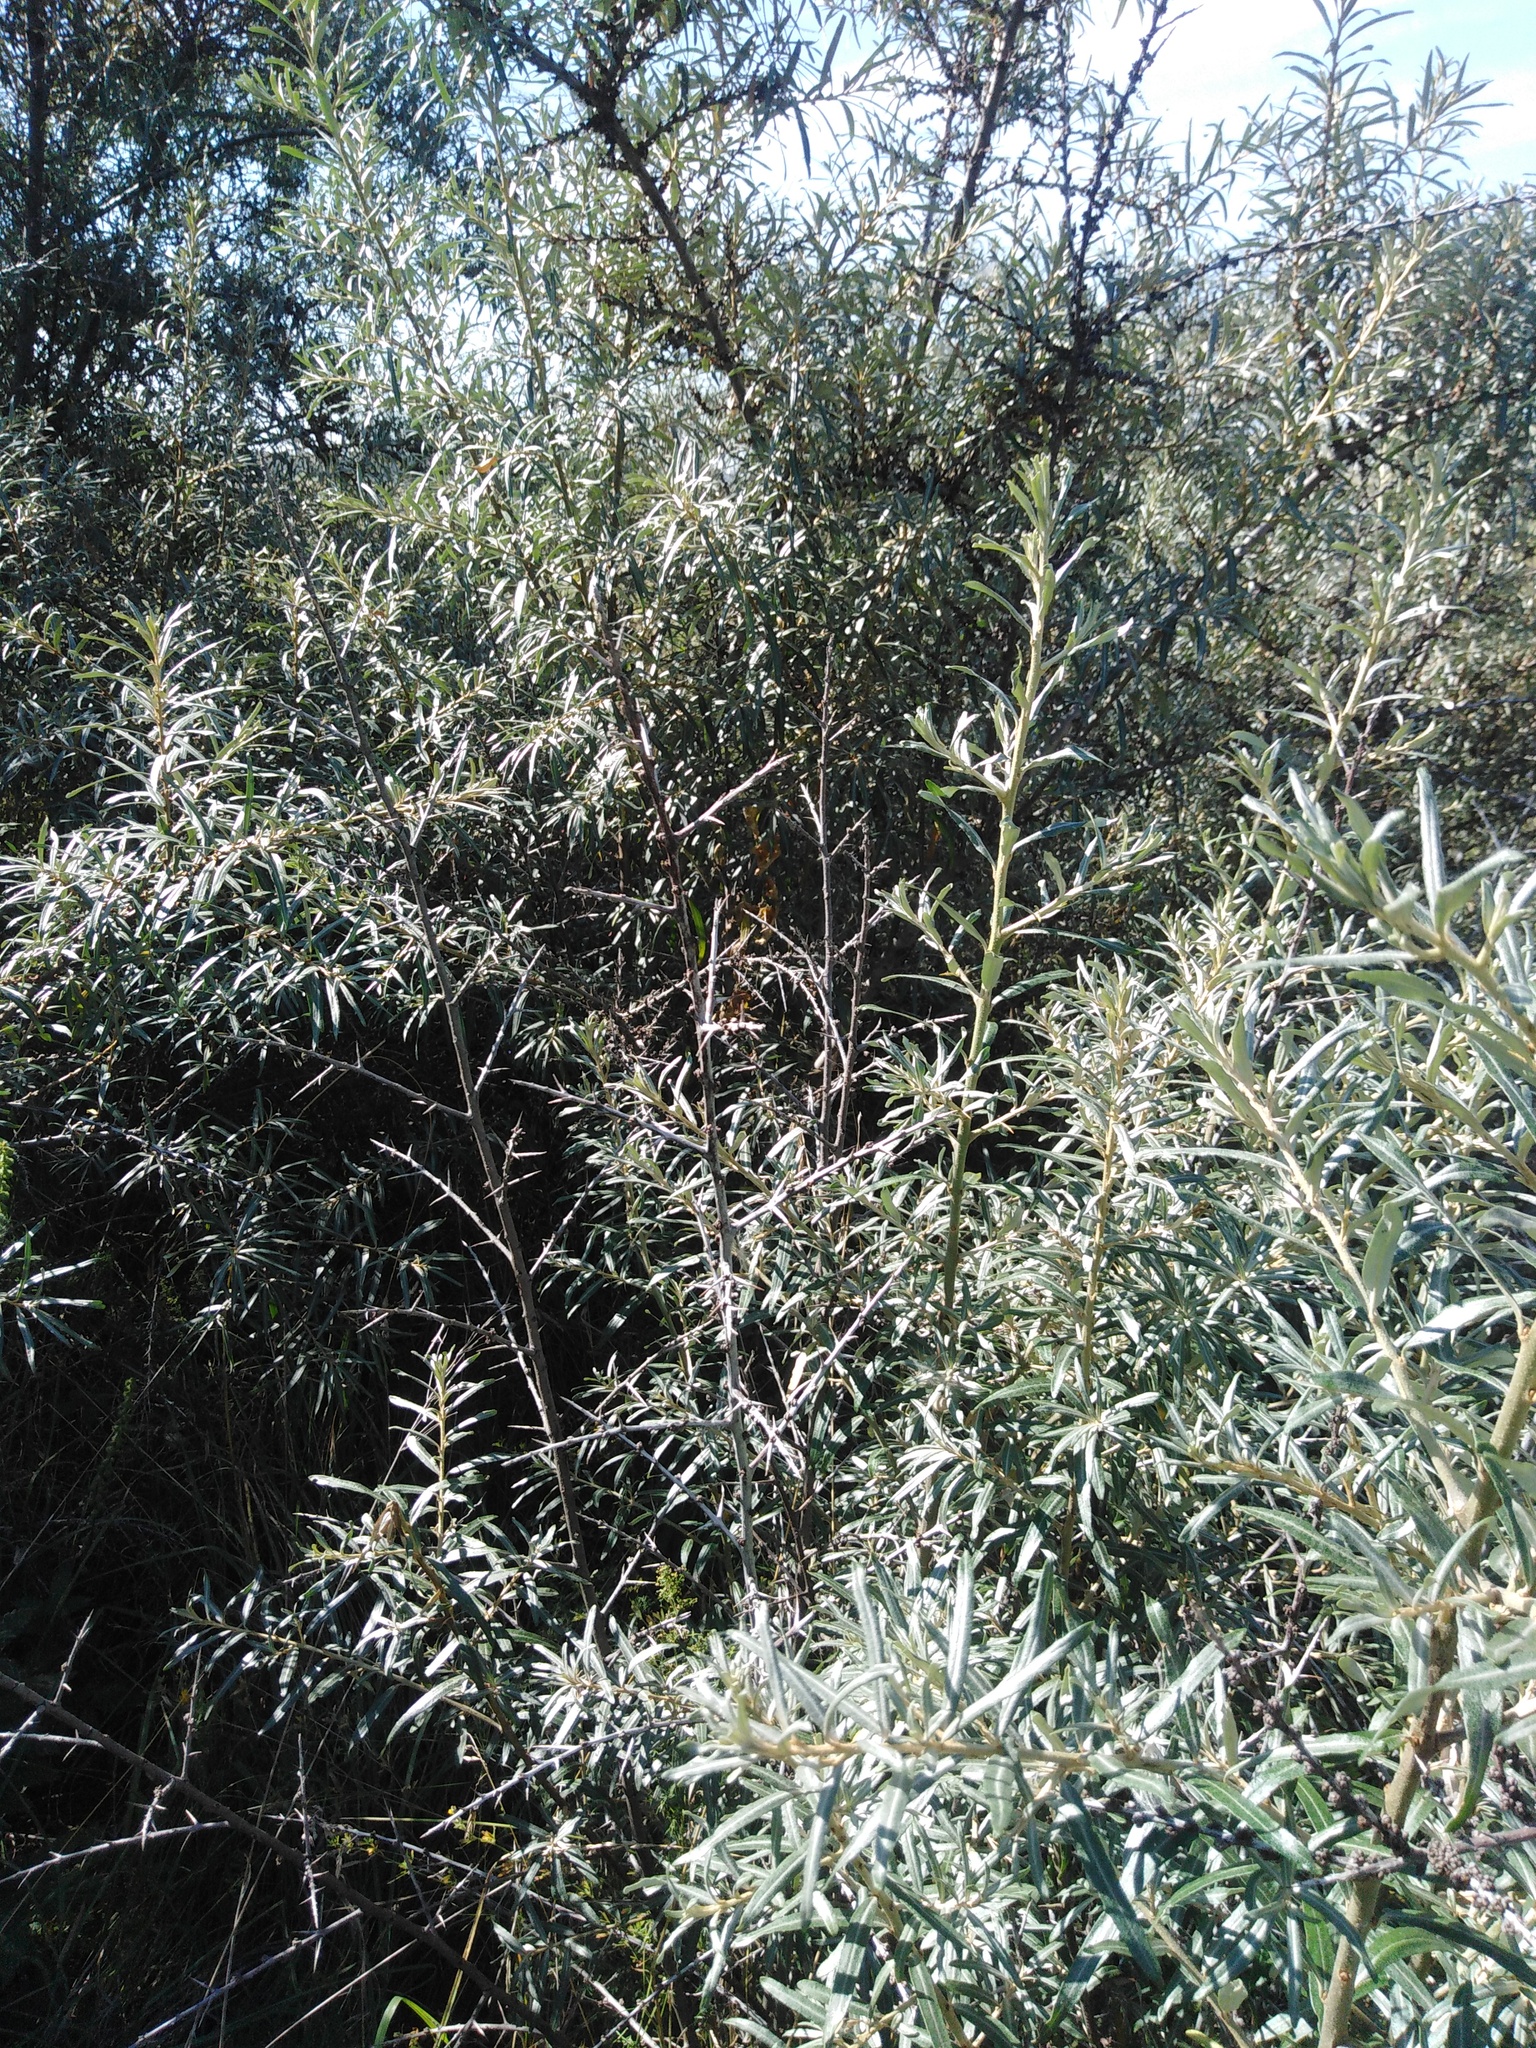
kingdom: Plantae
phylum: Tracheophyta
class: Magnoliopsida
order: Rosales
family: Elaeagnaceae
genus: Hippophae
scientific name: Hippophae rhamnoides
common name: Sea-buckthorn
